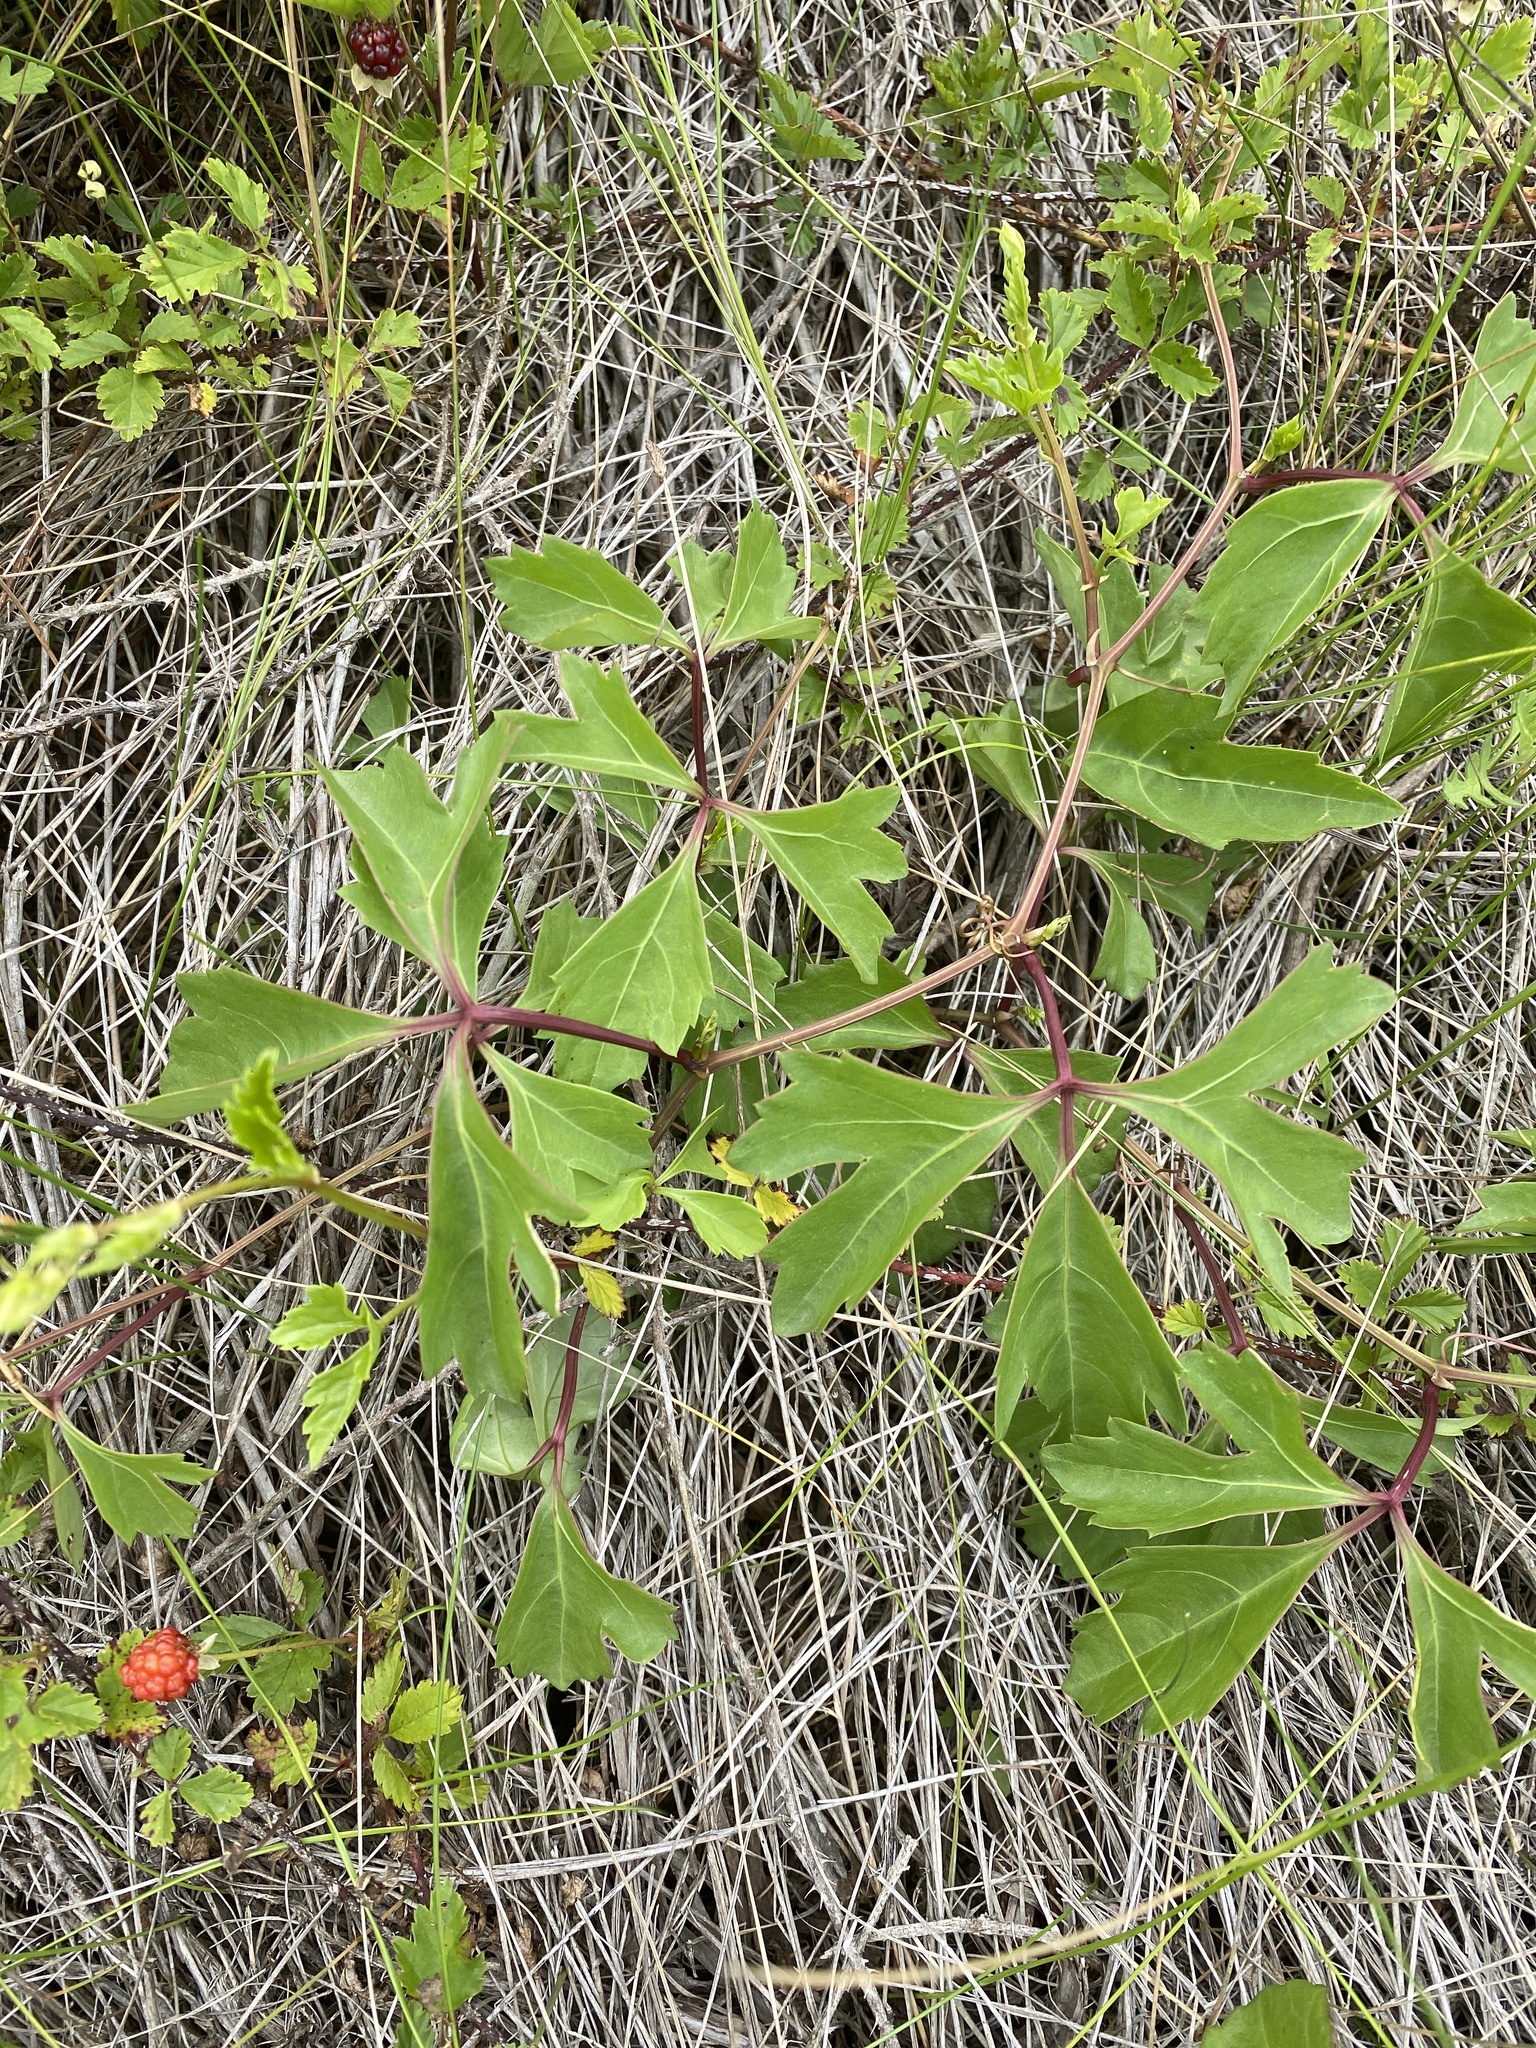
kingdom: Plantae
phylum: Tracheophyta
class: Magnoliopsida
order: Vitales
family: Vitaceae
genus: Cissus
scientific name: Cissus trifoliata
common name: Vine-sorrel
